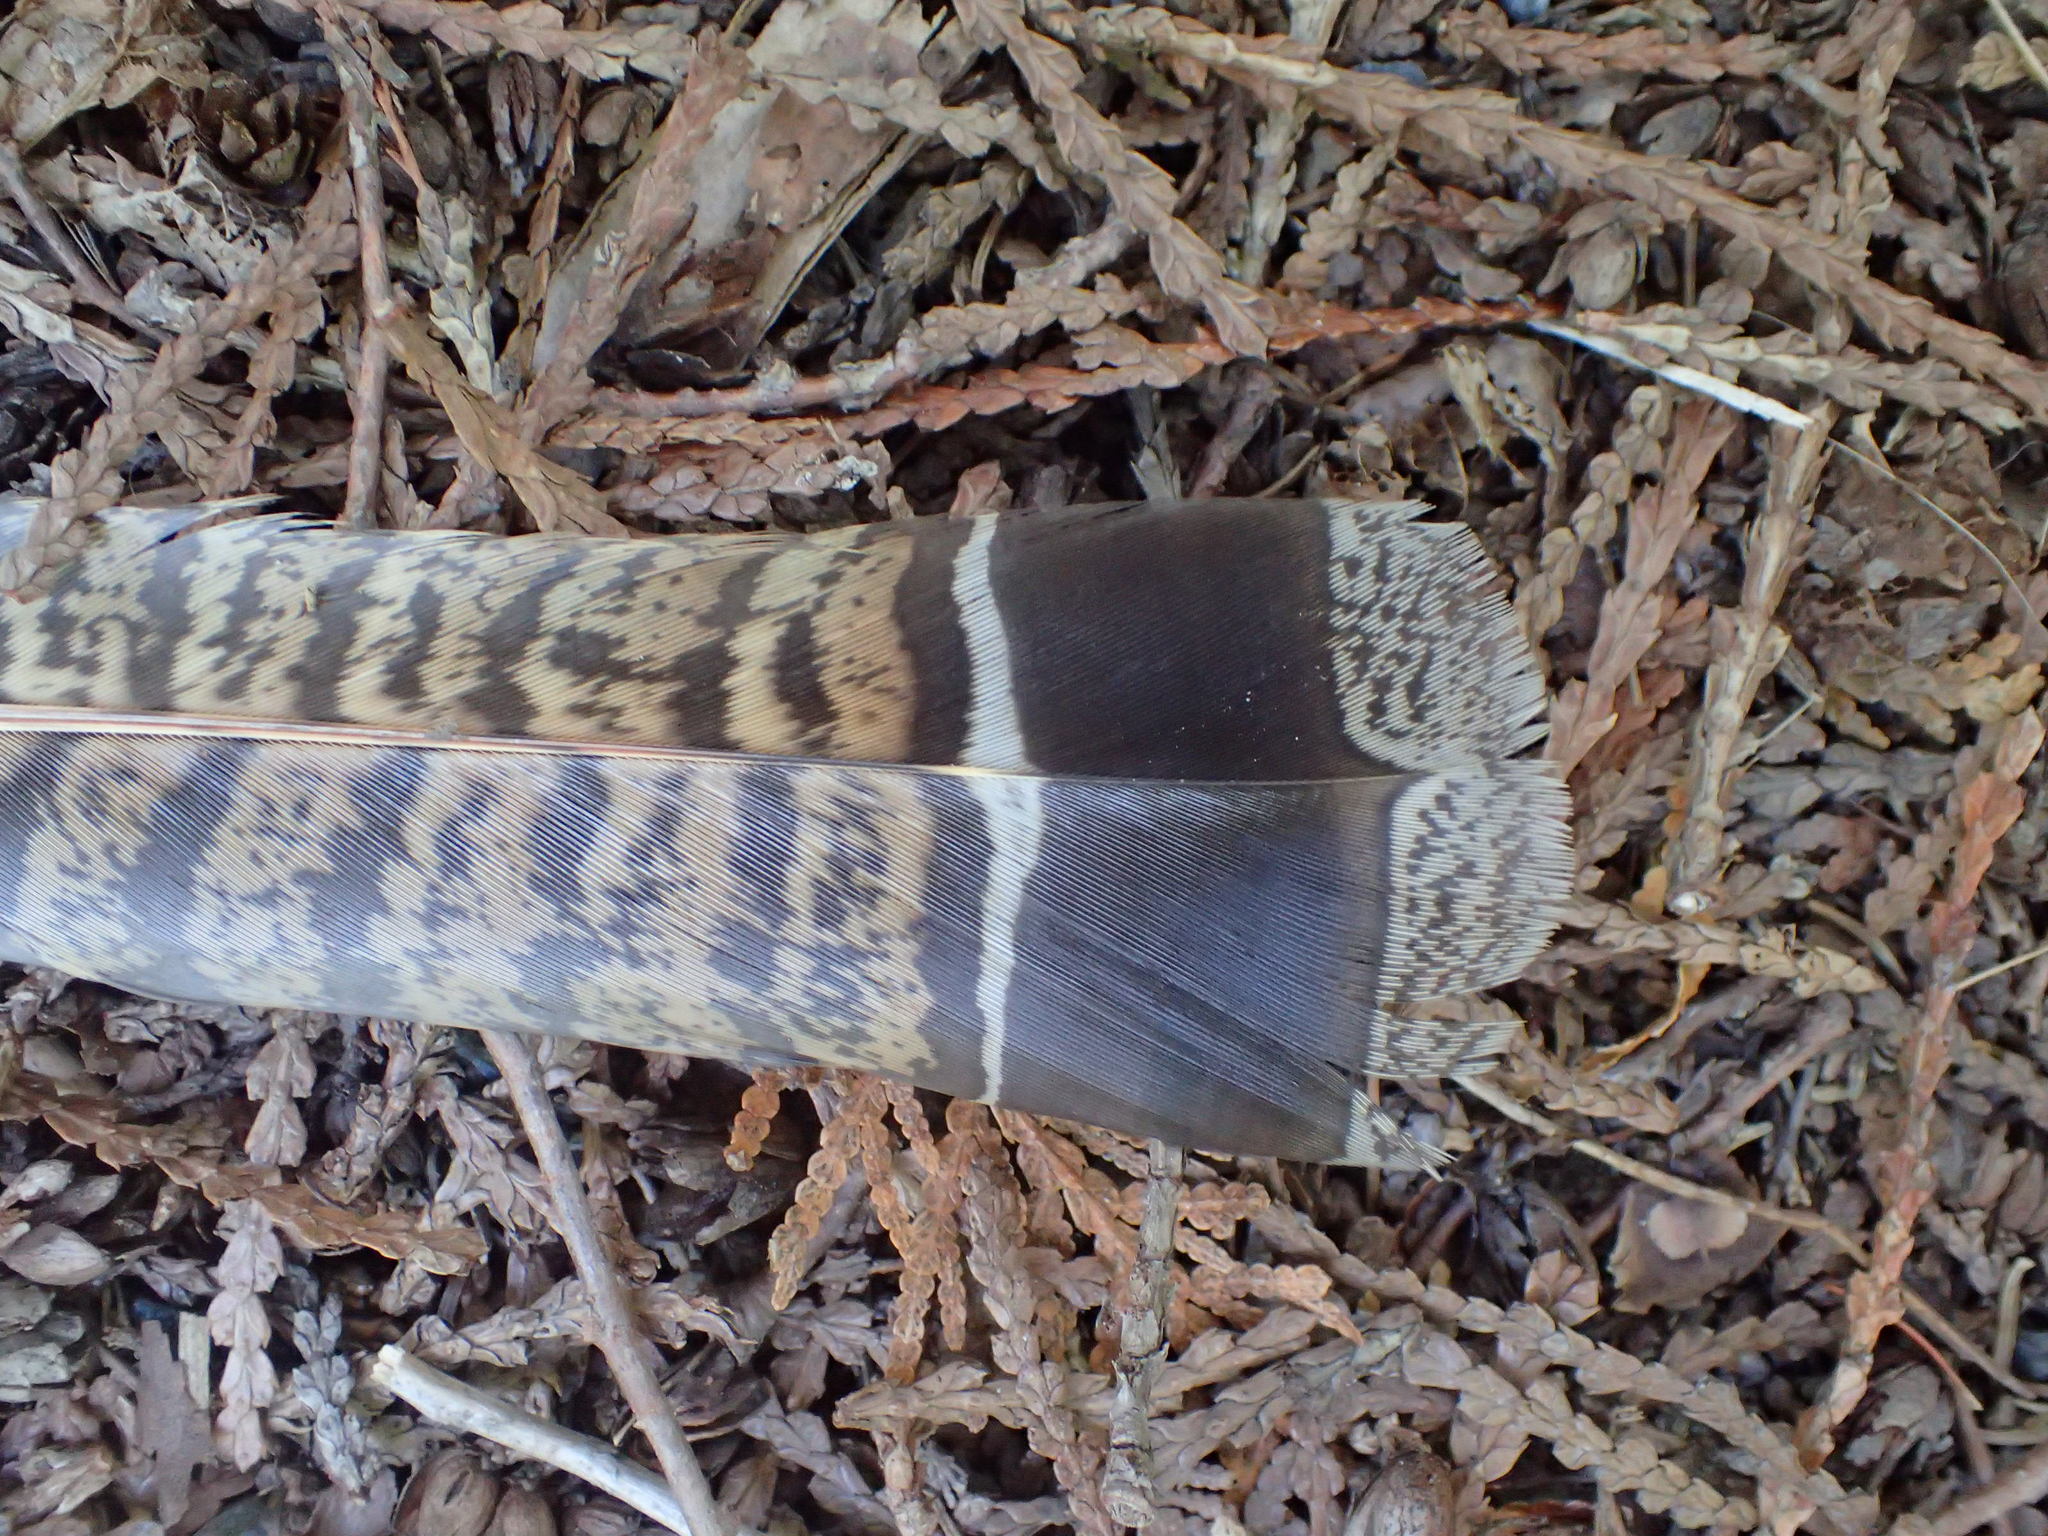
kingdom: Animalia
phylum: Chordata
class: Aves
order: Galliformes
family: Phasianidae
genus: Bonasa
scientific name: Bonasa umbellus
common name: Ruffed grouse
